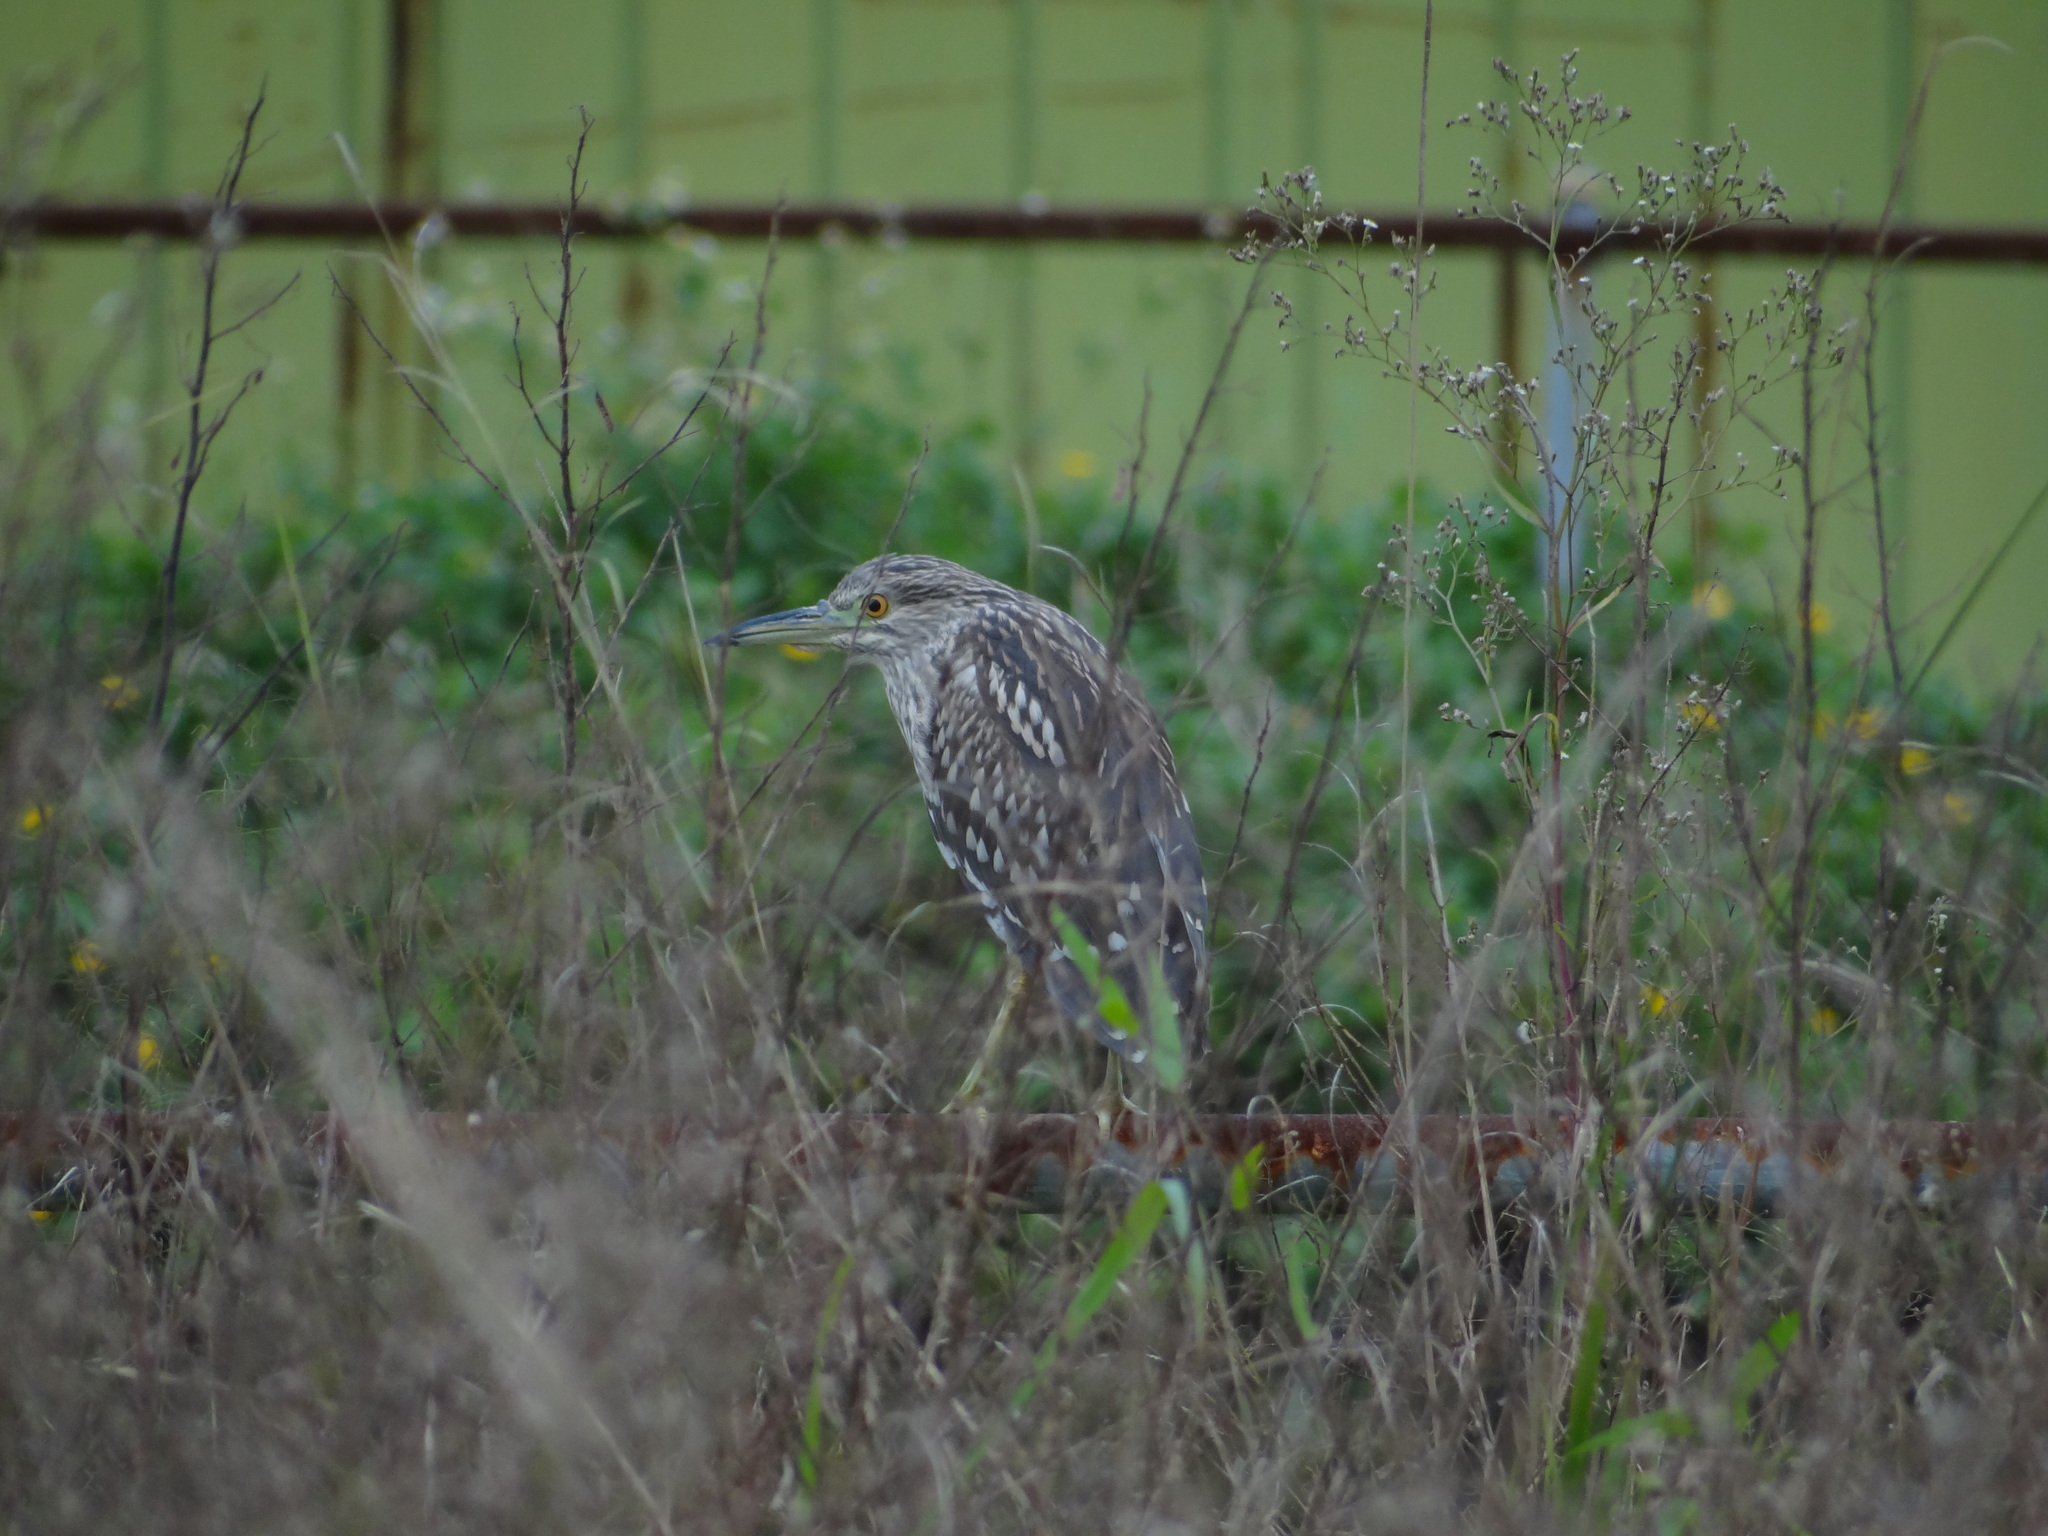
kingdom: Animalia
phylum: Chordata
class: Aves
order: Pelecaniformes
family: Ardeidae
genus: Nycticorax
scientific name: Nycticorax nycticorax
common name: Black-crowned night heron
